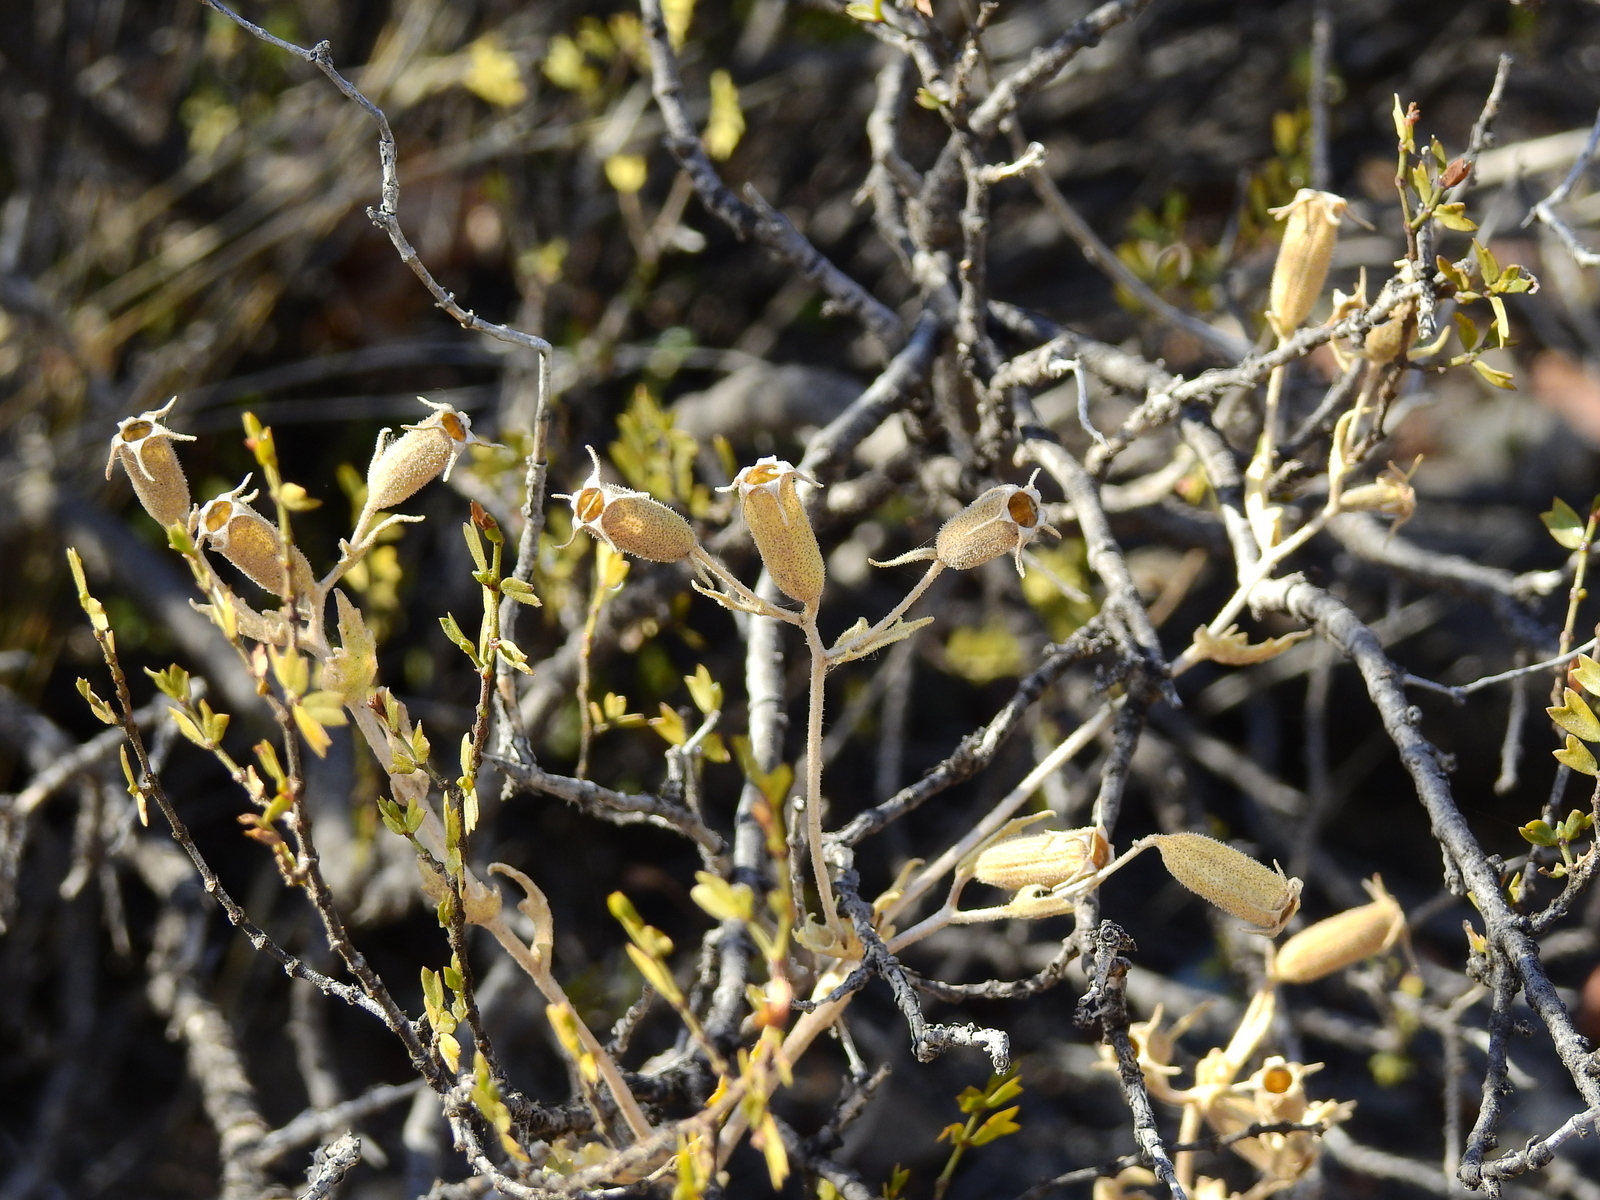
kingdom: Plantae
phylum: Tracheophyta
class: Magnoliopsida
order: Cornales
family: Loasaceae
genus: Mentzelia
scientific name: Mentzelia albescens
